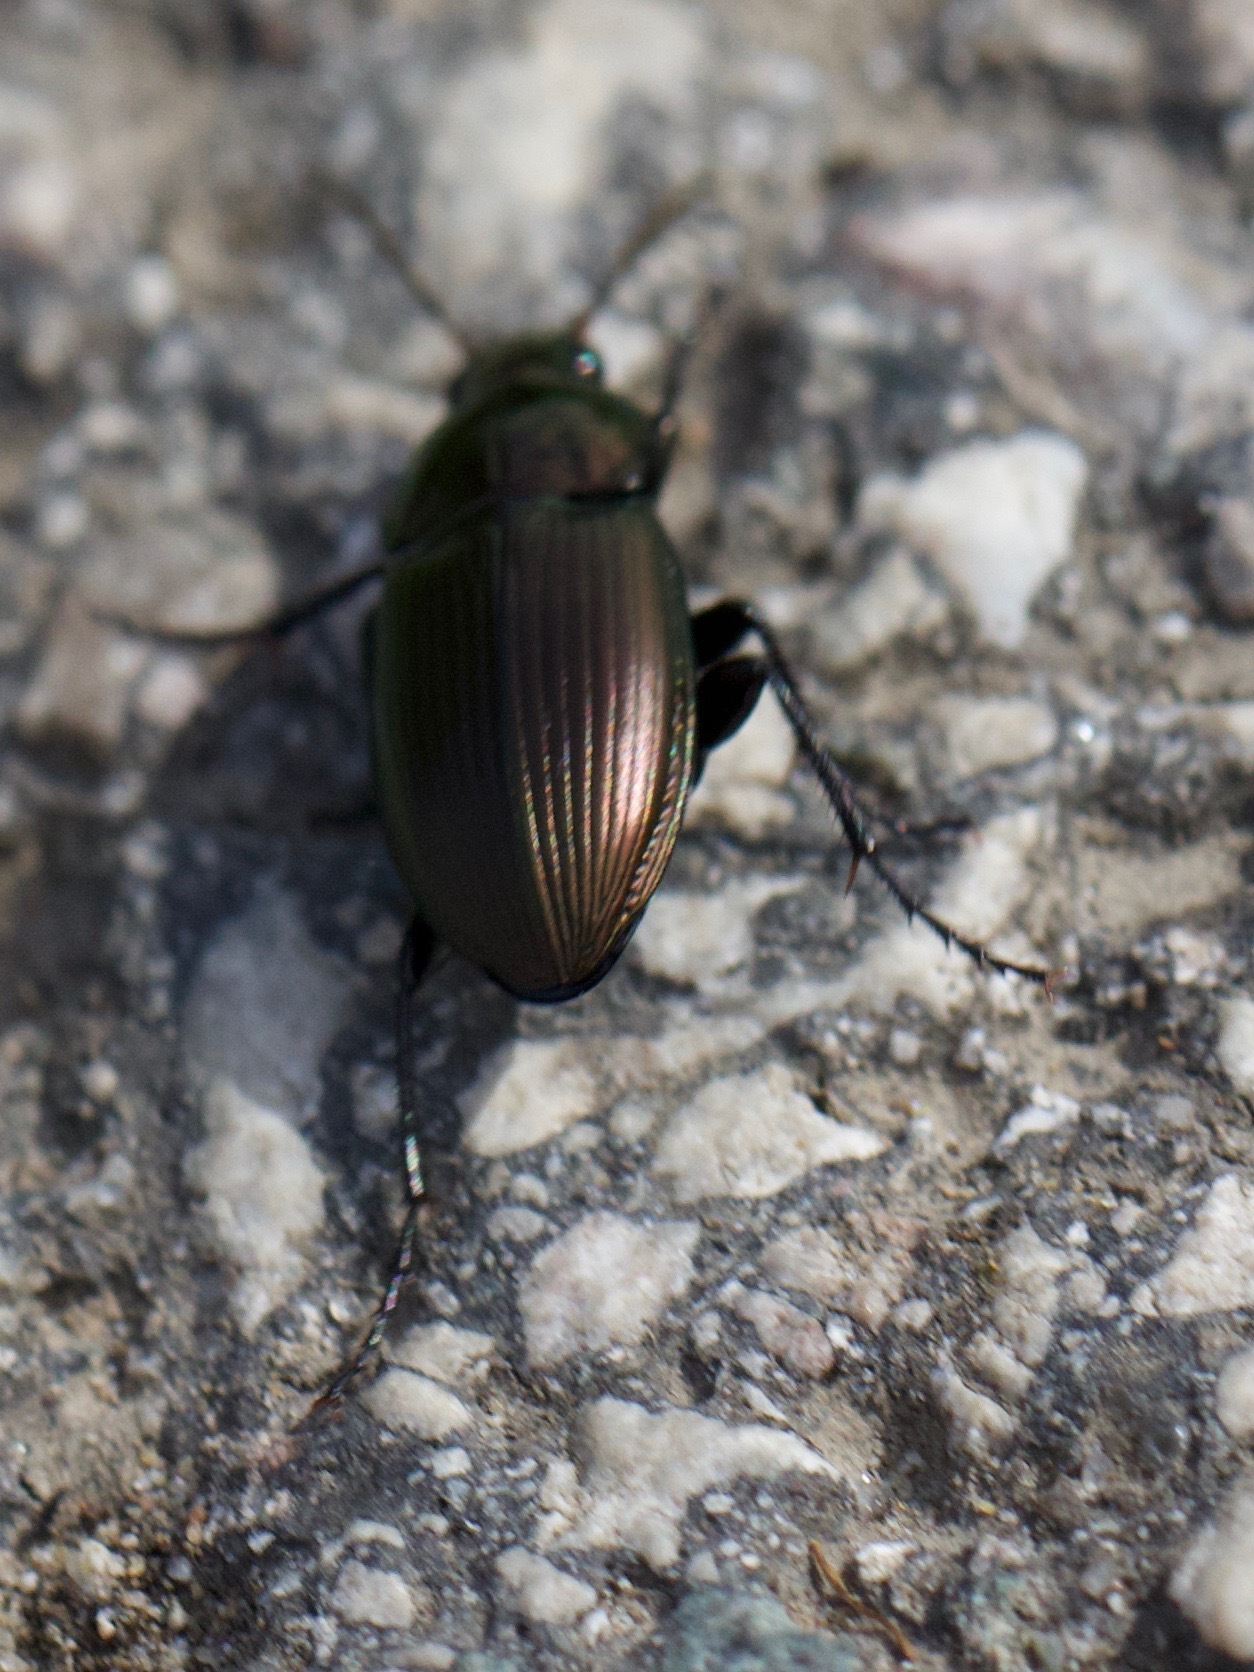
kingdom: Animalia
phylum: Arthropoda
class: Insecta
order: Coleoptera
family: Carabidae
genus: Poecilus
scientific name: Poecilus versicolor
